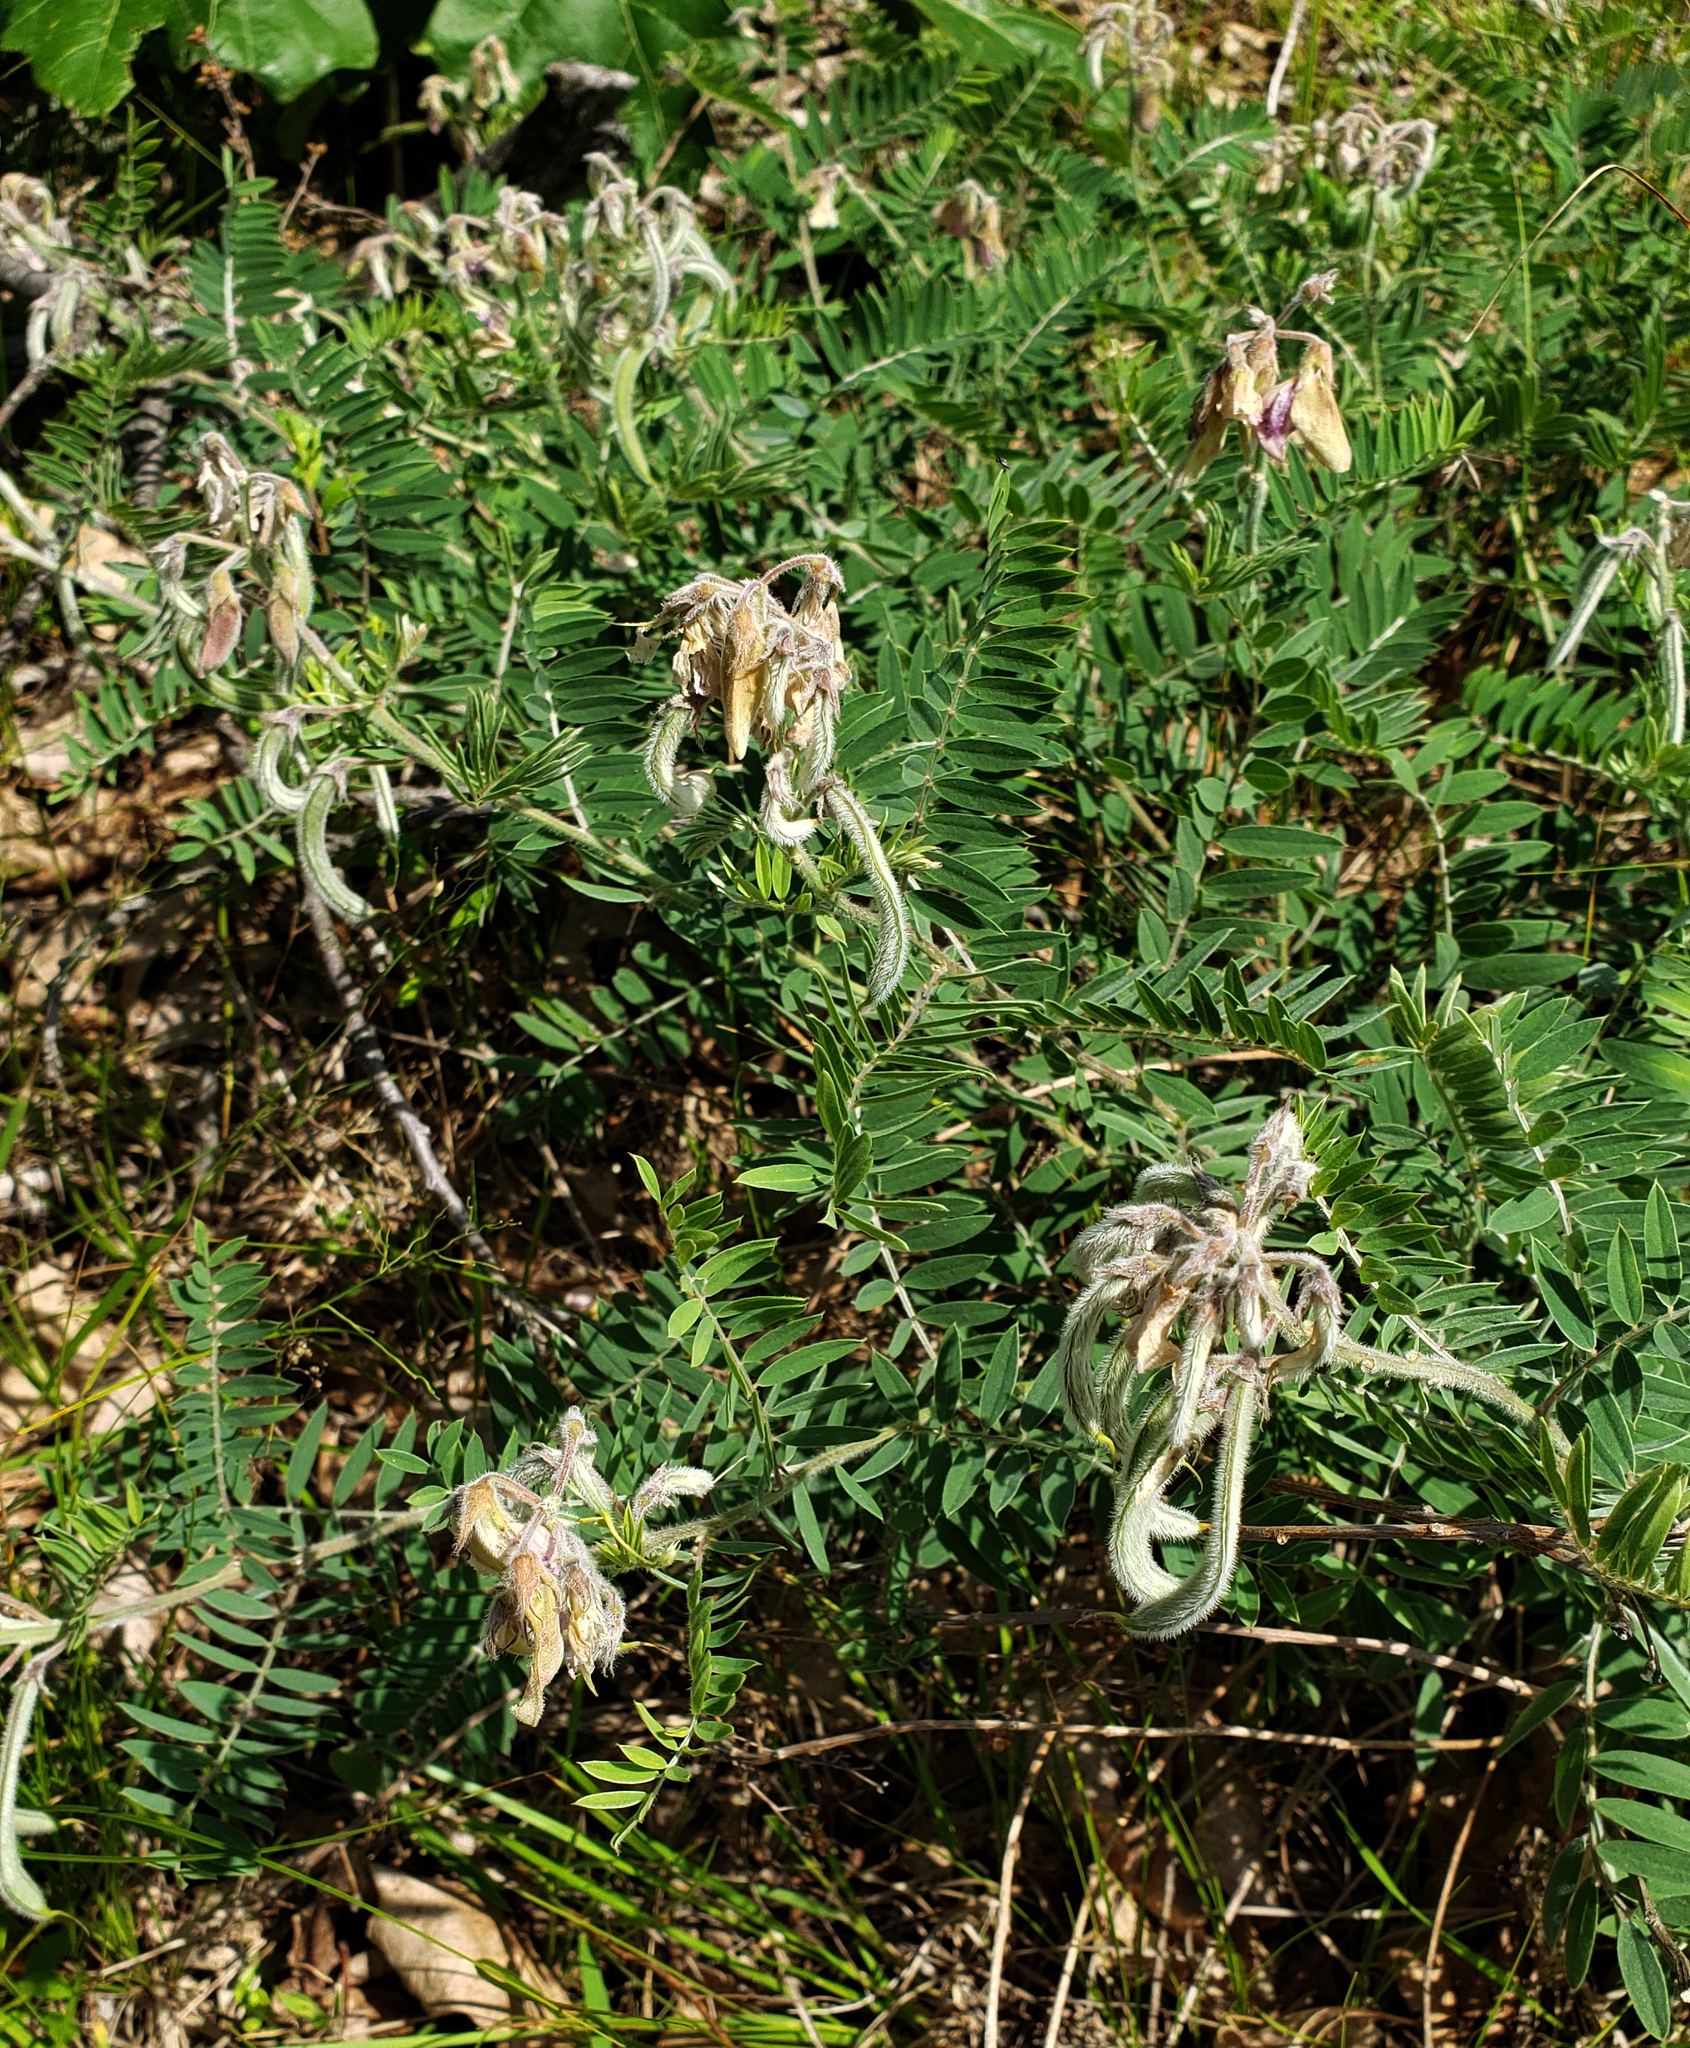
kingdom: Plantae
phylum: Tracheophyta
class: Magnoliopsida
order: Fabales
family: Fabaceae
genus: Tephrosia
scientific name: Tephrosia virginiana
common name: Rabbit-pea
